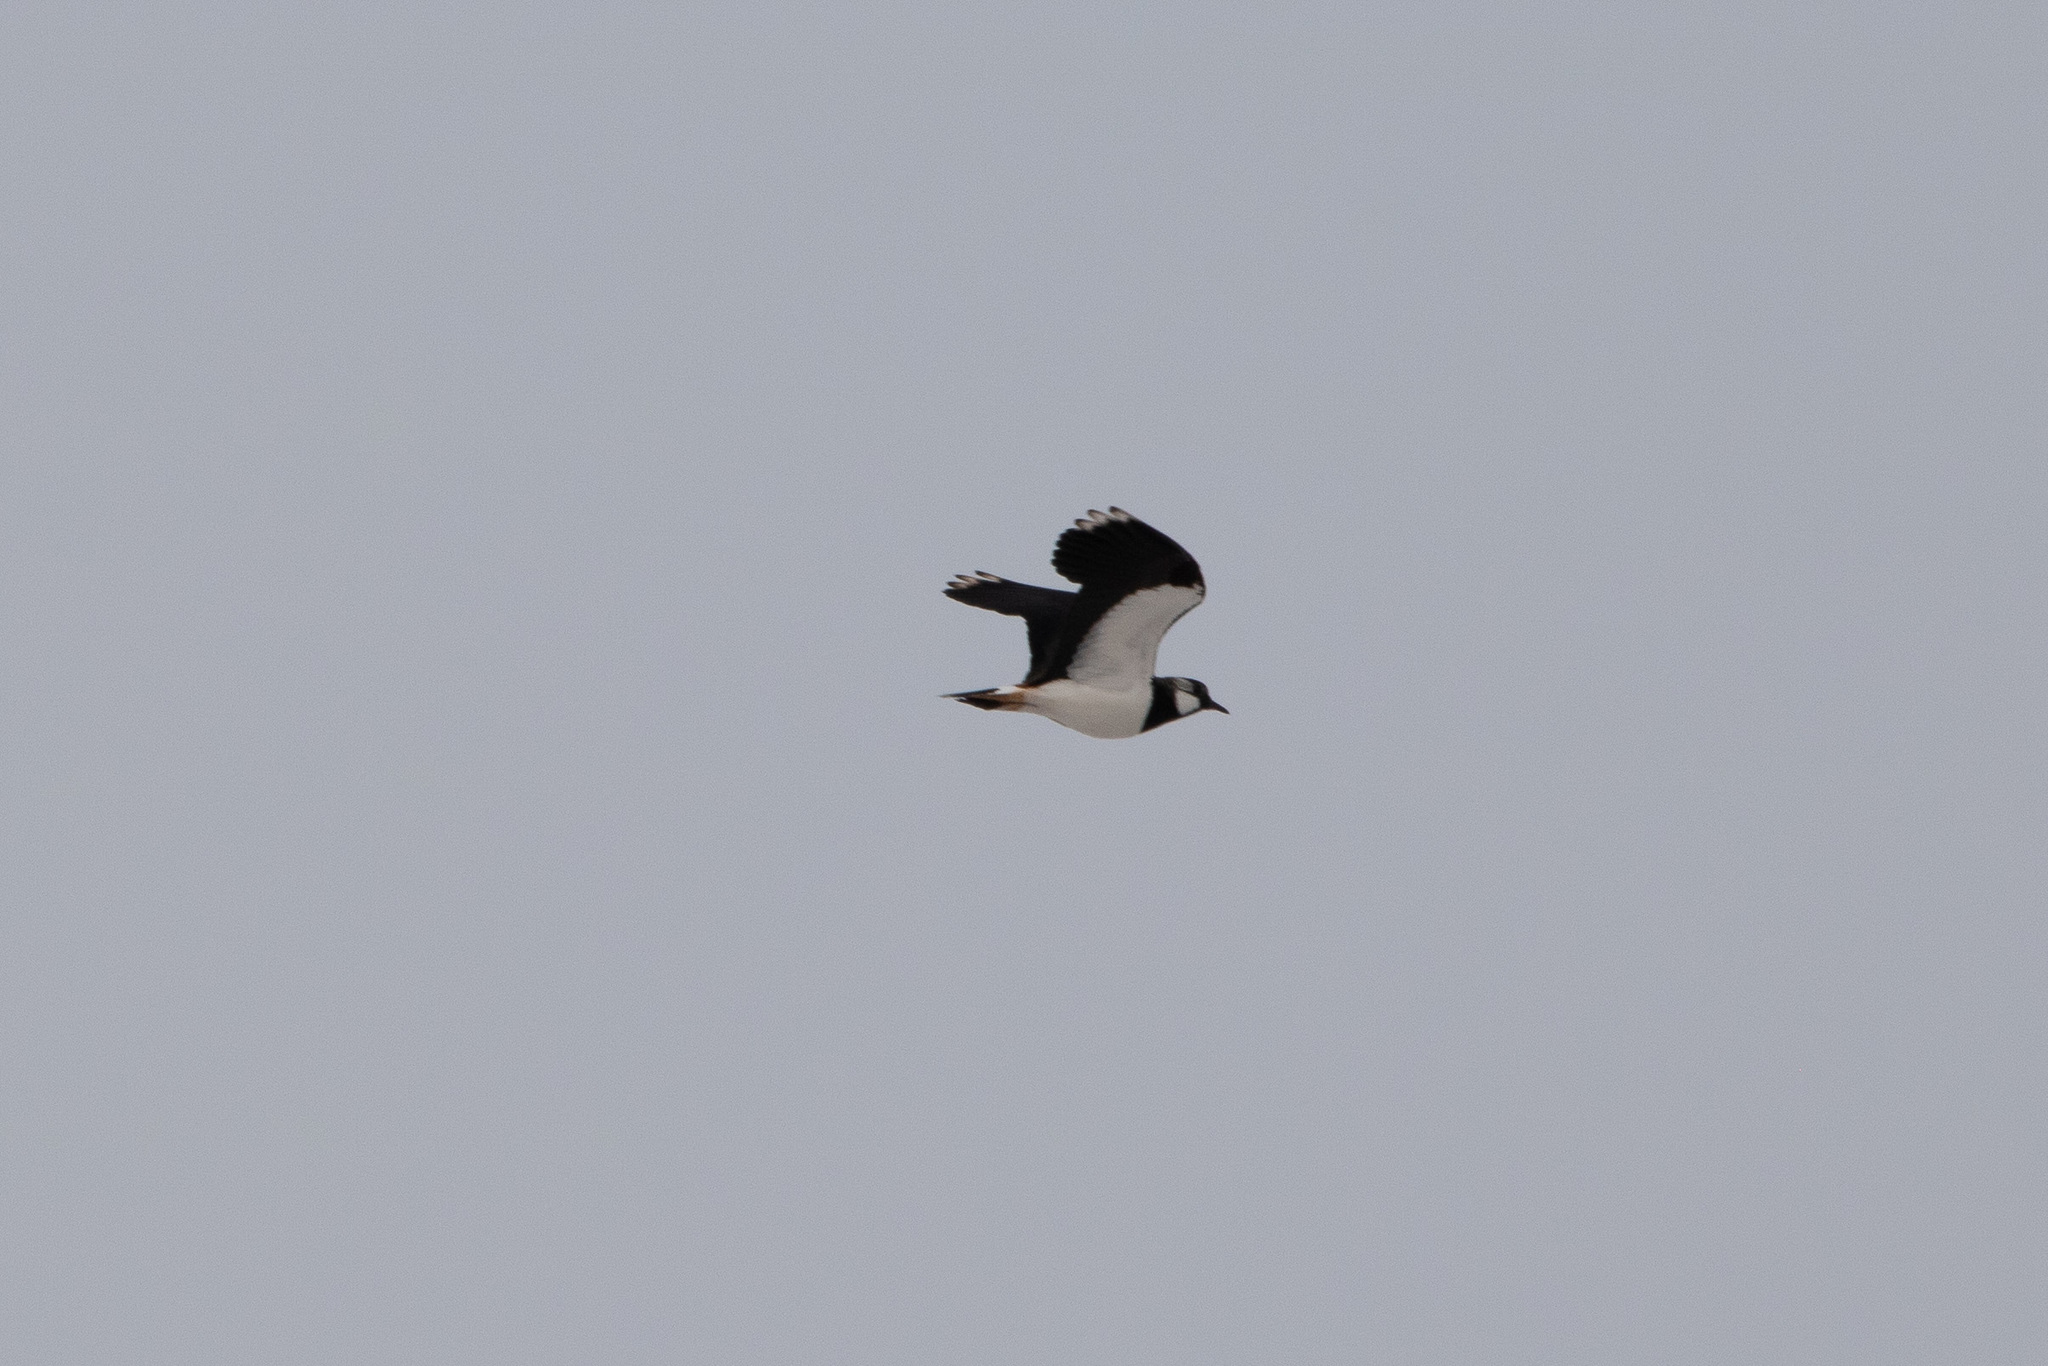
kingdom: Animalia
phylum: Chordata
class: Aves
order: Charadriiformes
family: Charadriidae
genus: Vanellus
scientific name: Vanellus vanellus
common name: Northern lapwing
